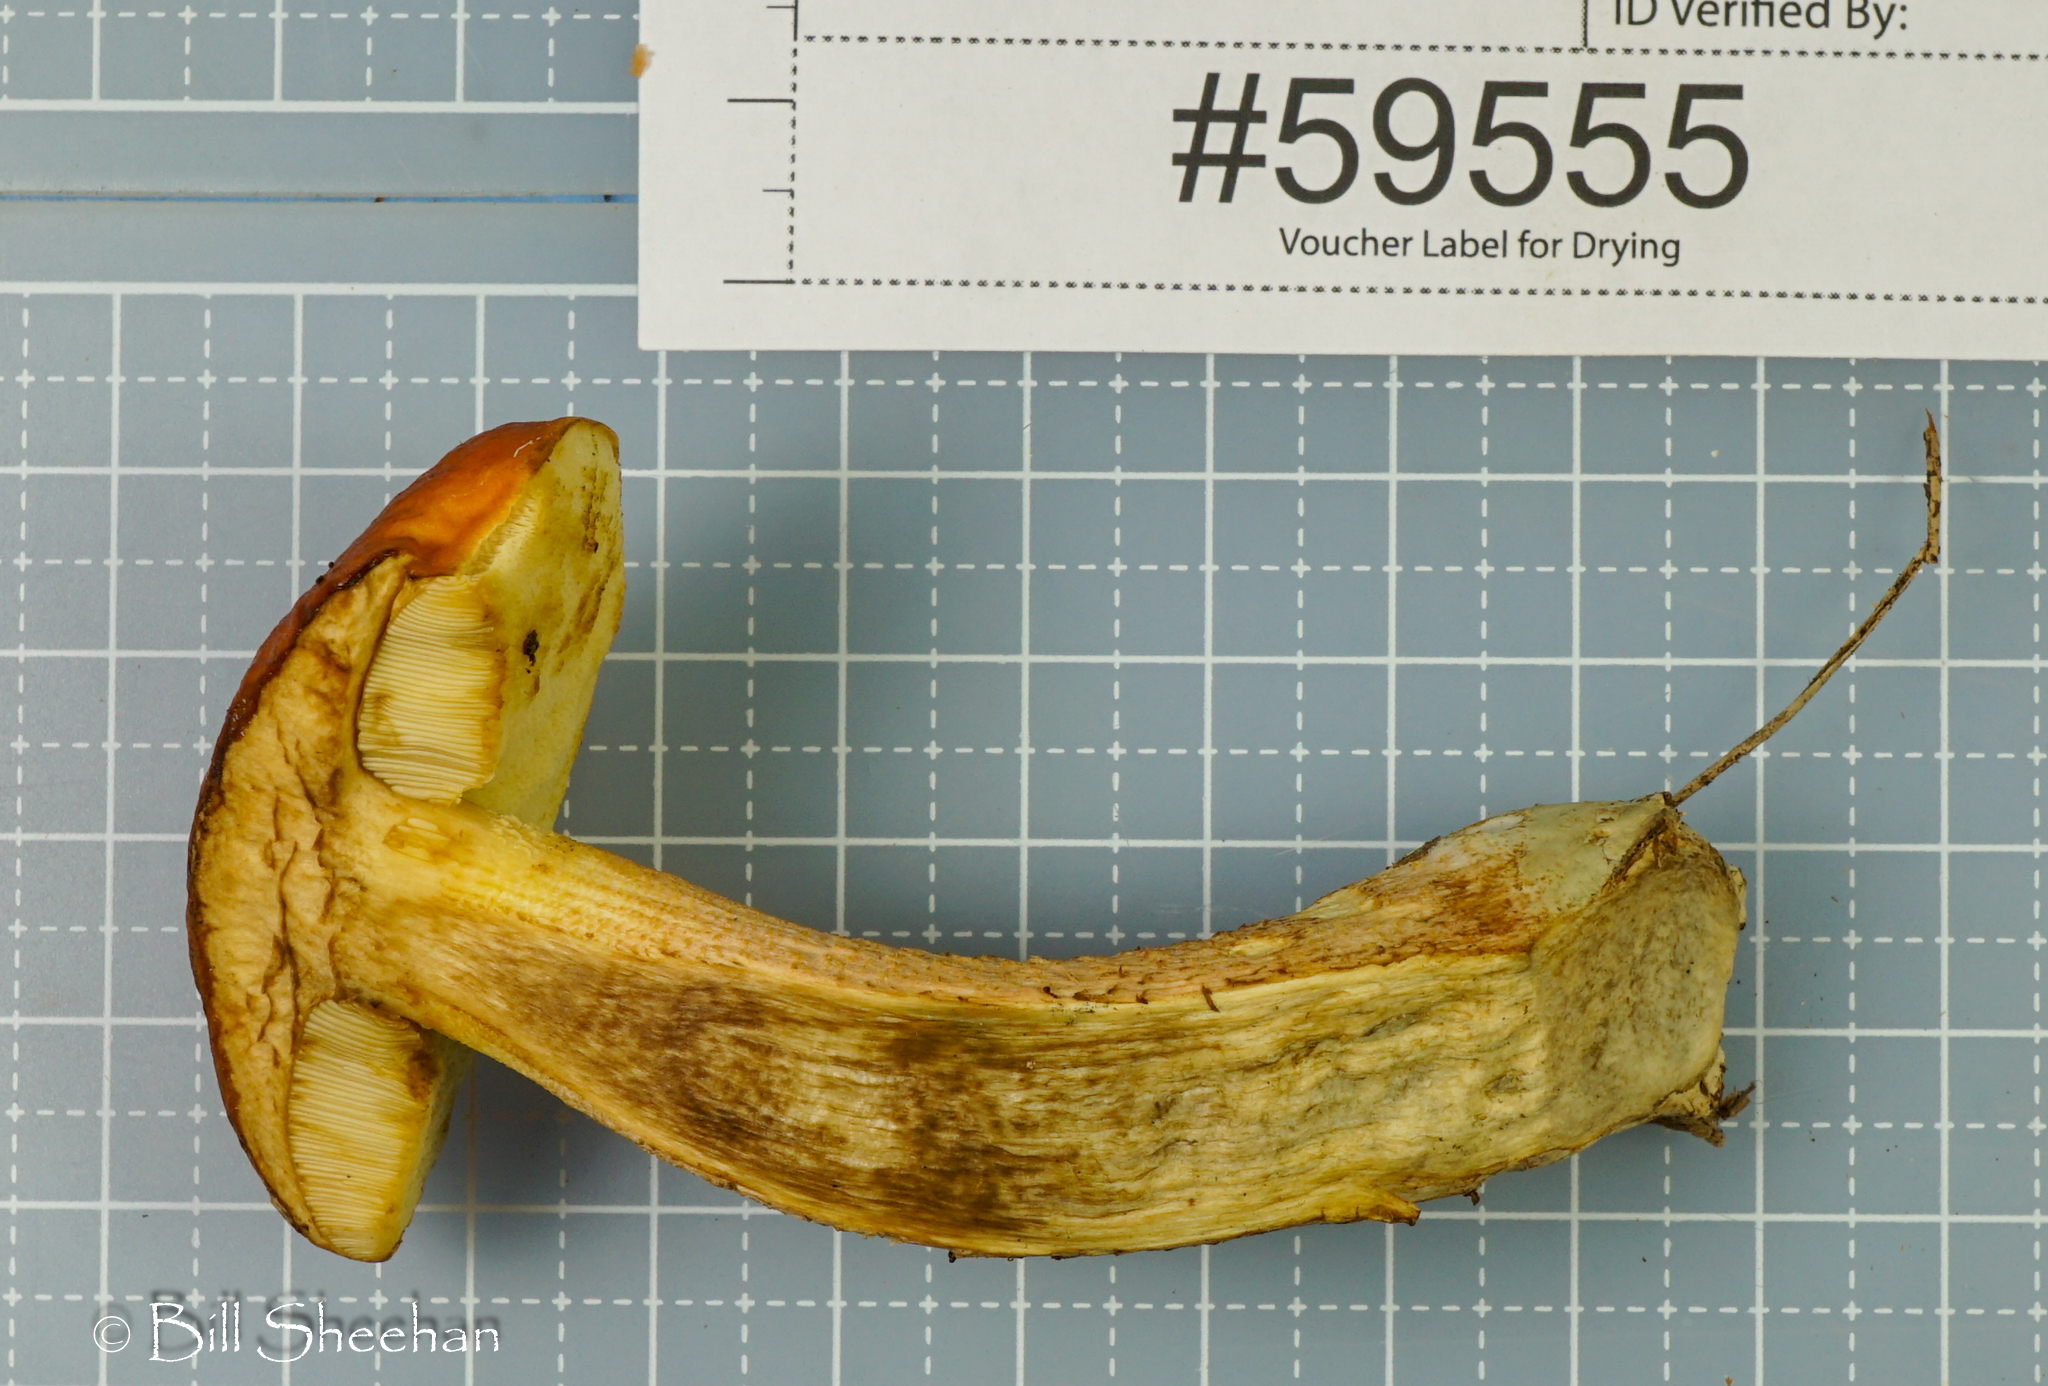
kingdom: Fungi
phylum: Basidiomycota
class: Agaricomycetes
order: Boletales
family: Boletaceae
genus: Leccinum
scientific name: Leccinum longicurvipes
